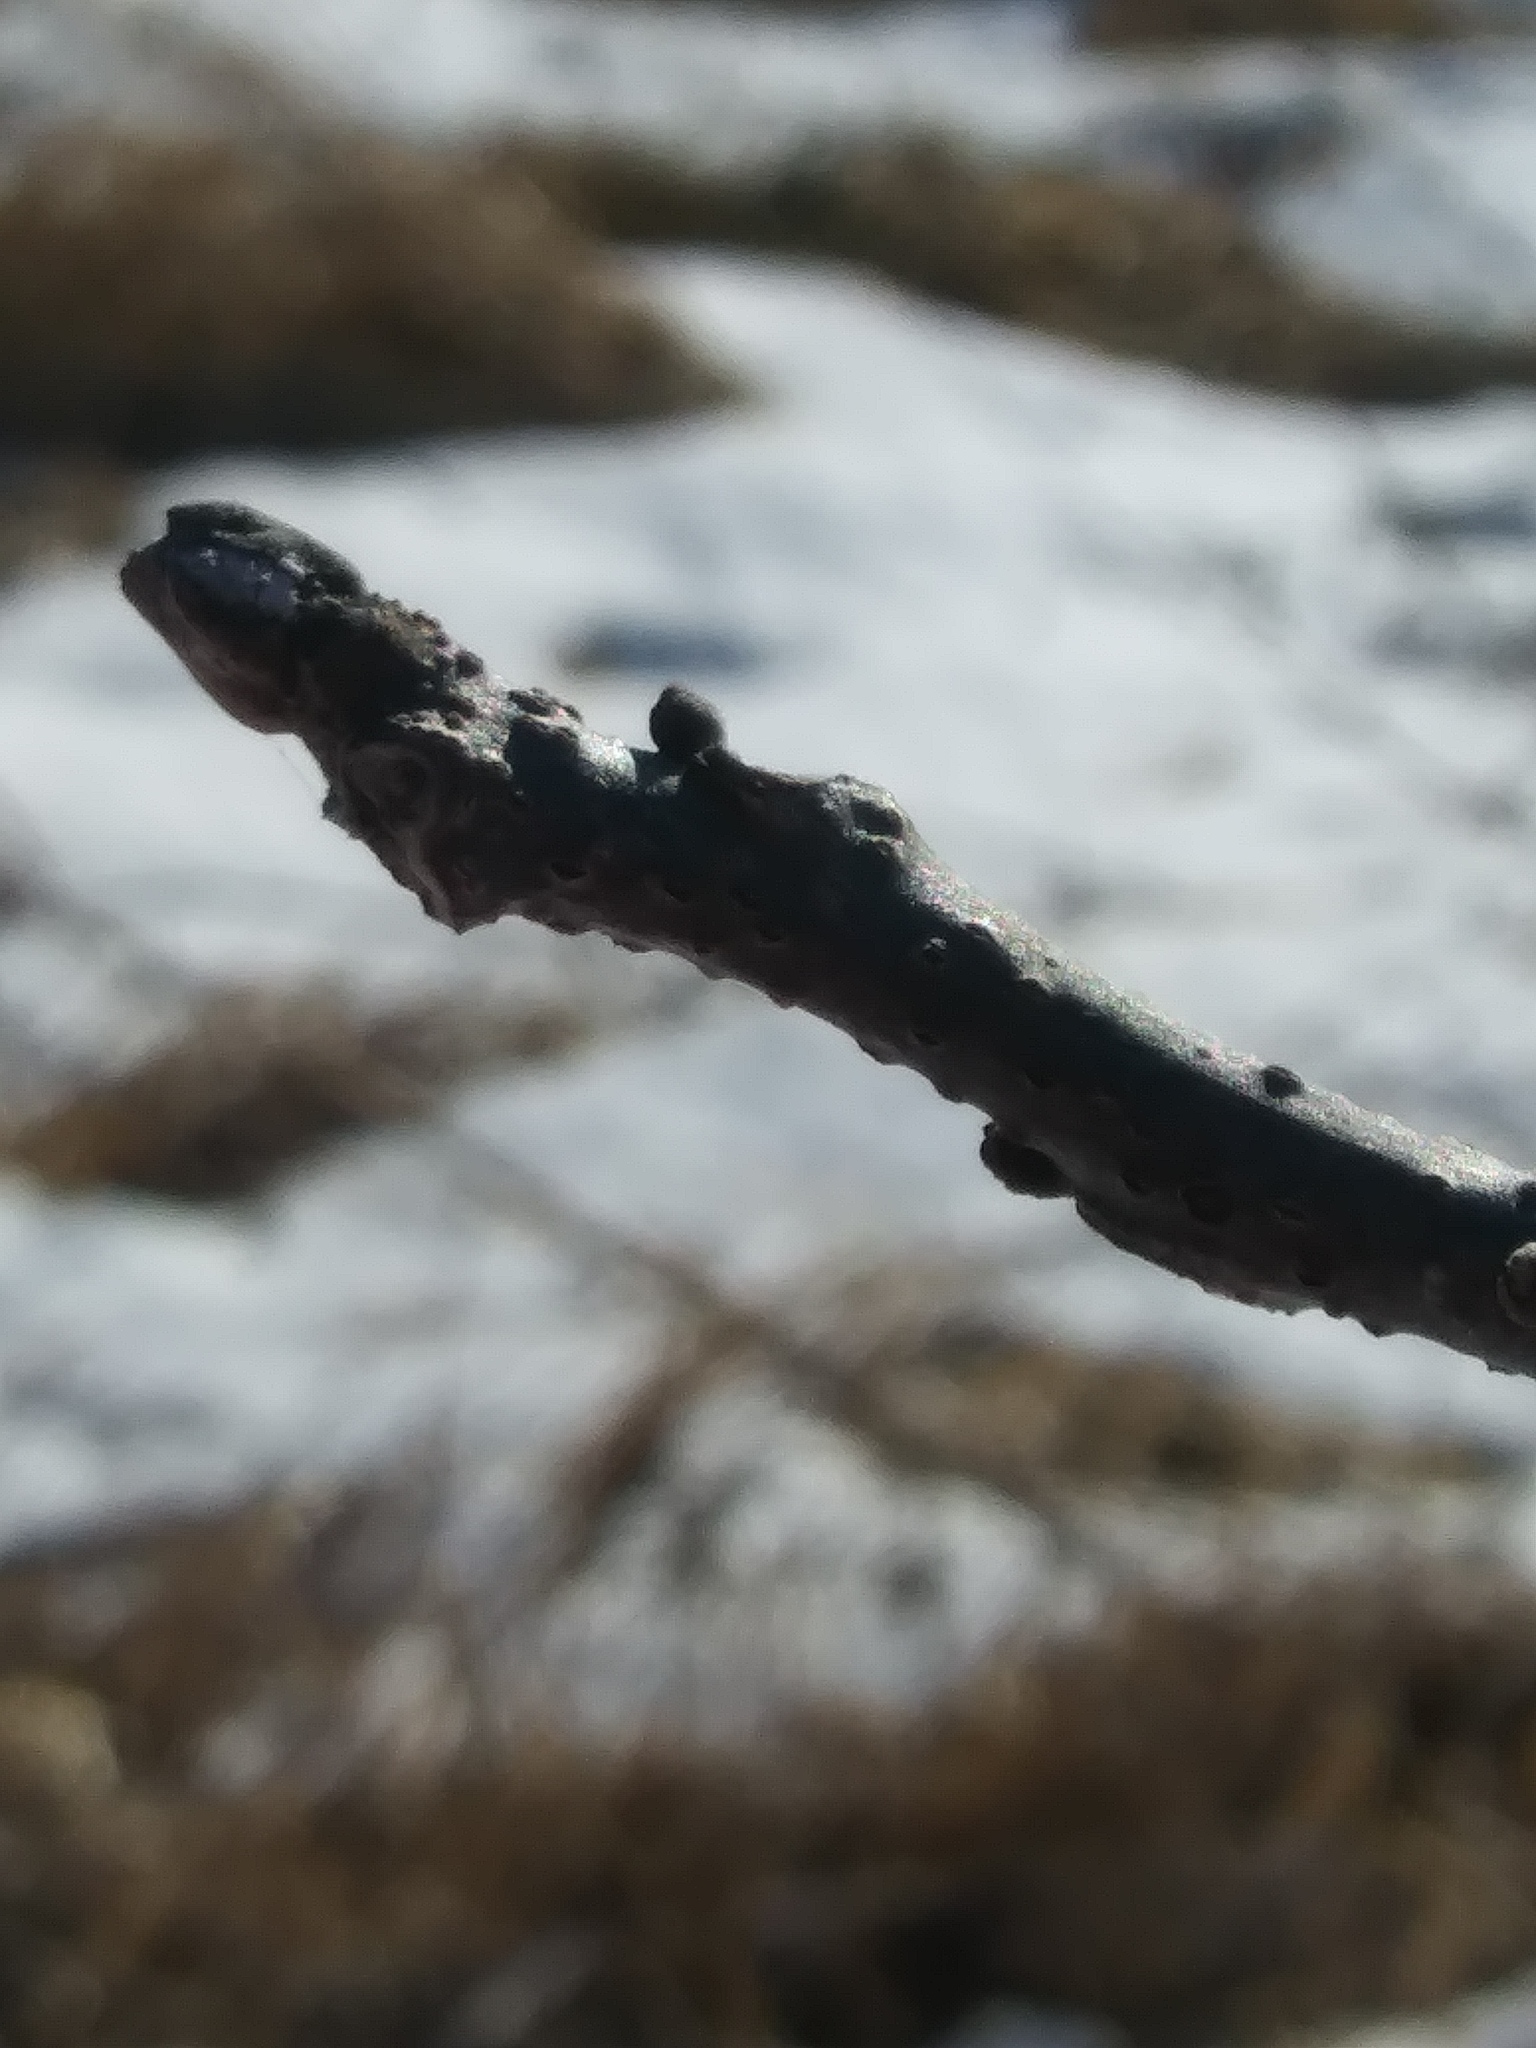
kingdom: Plantae
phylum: Tracheophyta
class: Magnoliopsida
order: Fagales
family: Juglandaceae
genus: Juglans
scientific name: Juglans nigra
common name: Black walnut
